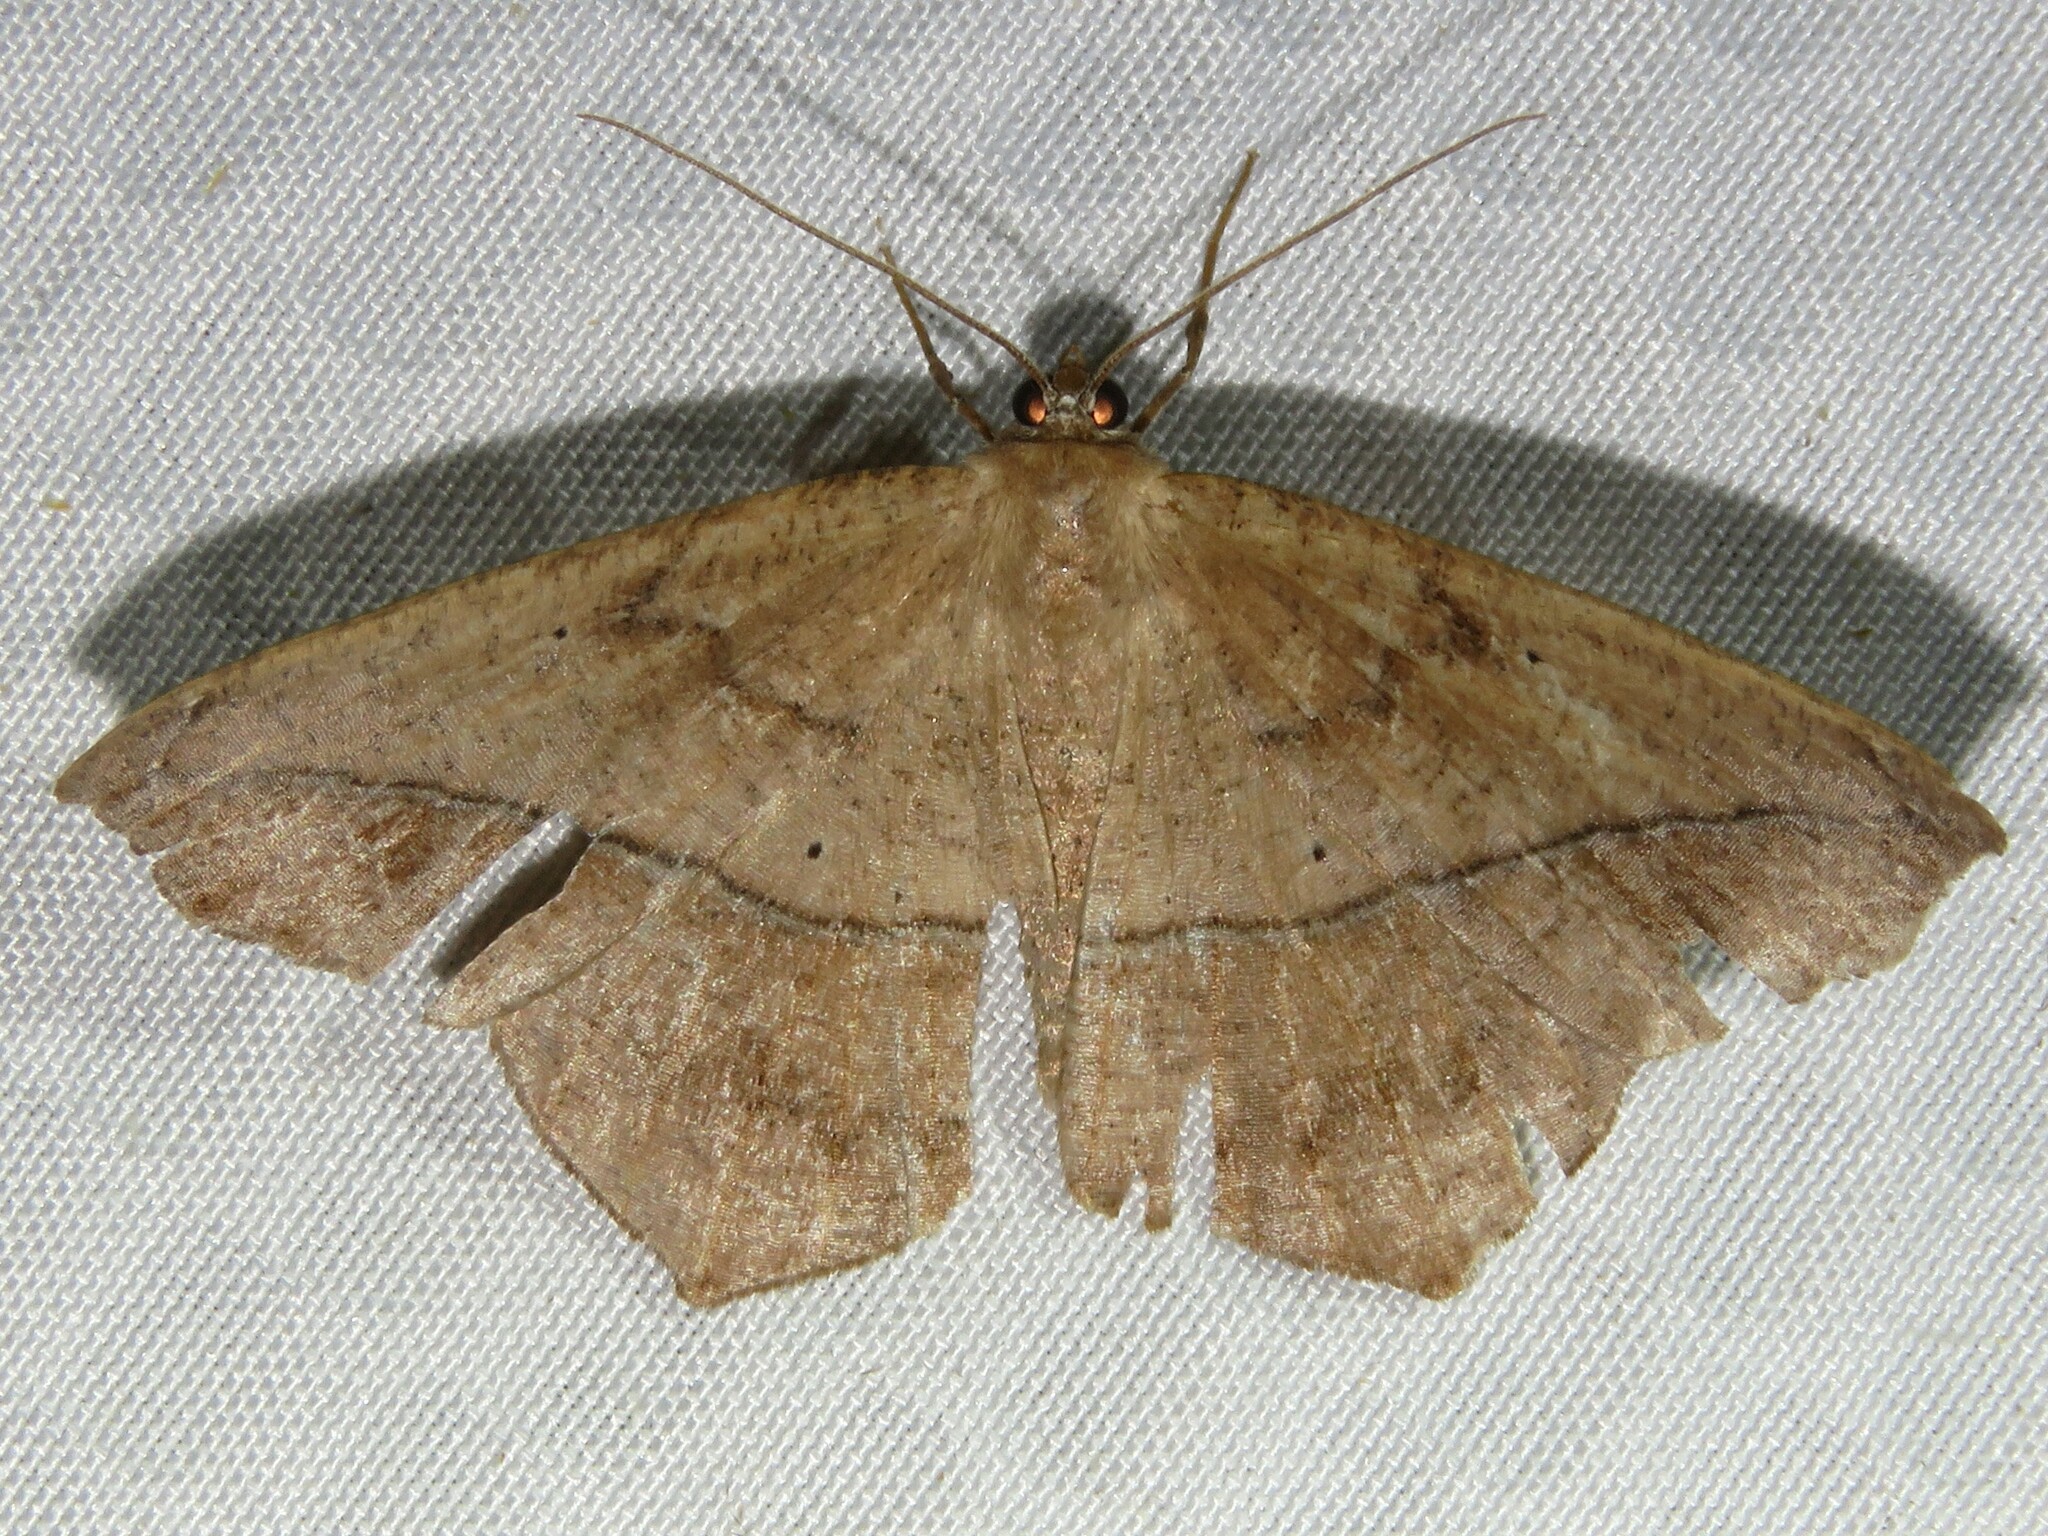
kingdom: Animalia
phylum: Arthropoda
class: Insecta
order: Lepidoptera
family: Geometridae
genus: Prochoerodes
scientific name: Prochoerodes lineola
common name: Large maple spanworm
